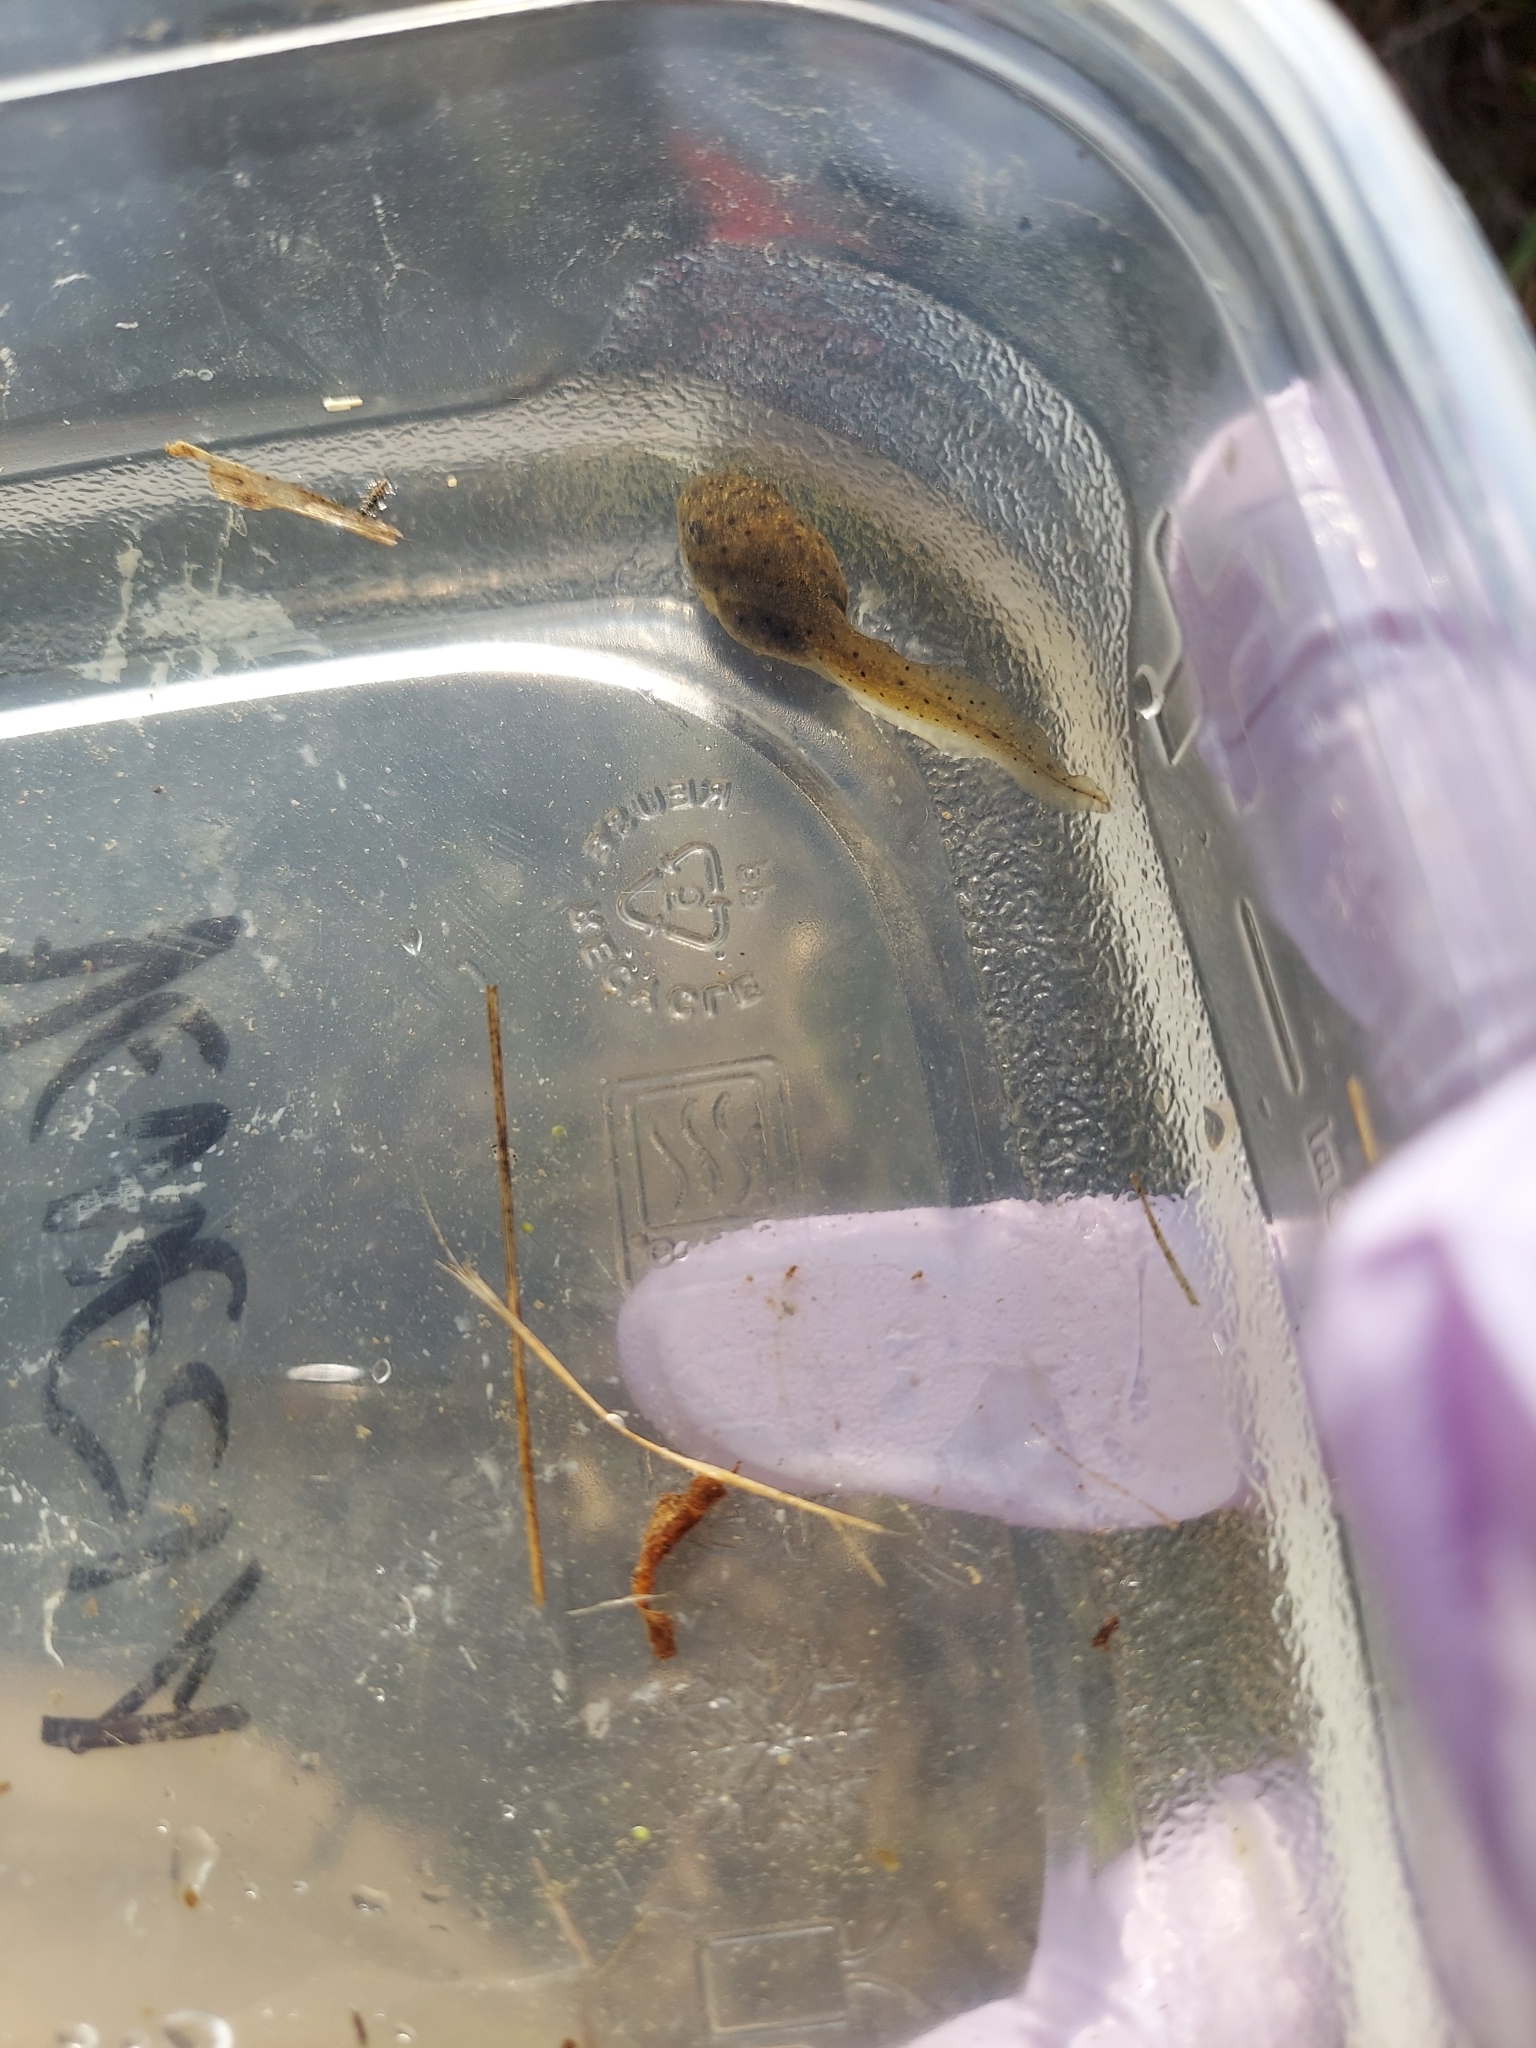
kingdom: Animalia
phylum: Chordata
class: Amphibia
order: Anura
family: Ranidae
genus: Lithobates
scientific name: Lithobates catesbeianus
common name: American bullfrog
